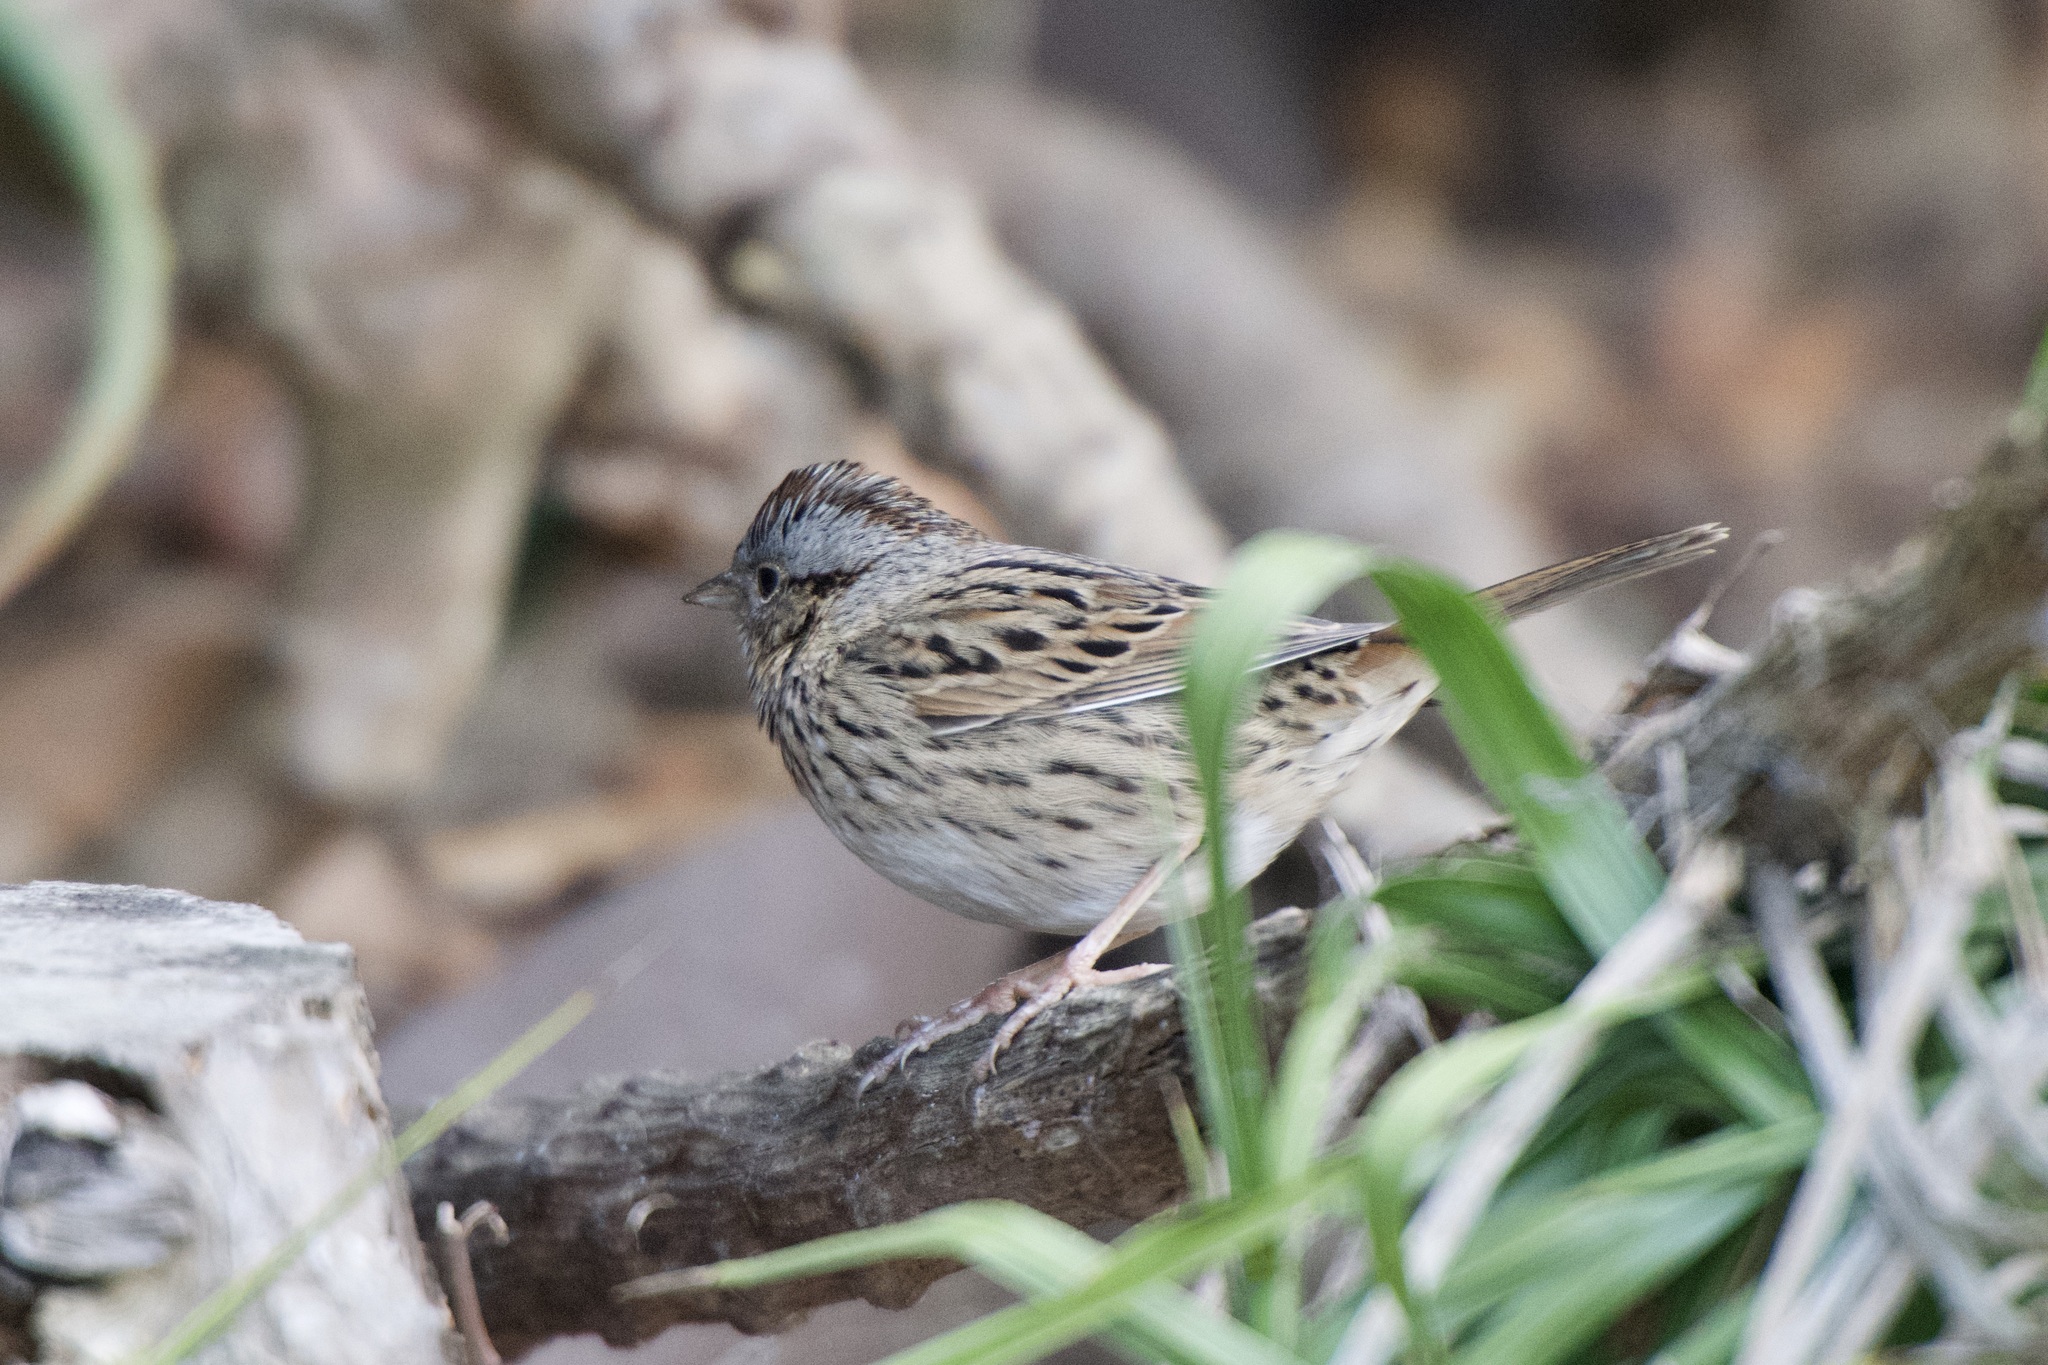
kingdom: Animalia
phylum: Chordata
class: Aves
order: Passeriformes
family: Passerellidae
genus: Melospiza
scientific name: Melospiza lincolnii
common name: Lincoln's sparrow
